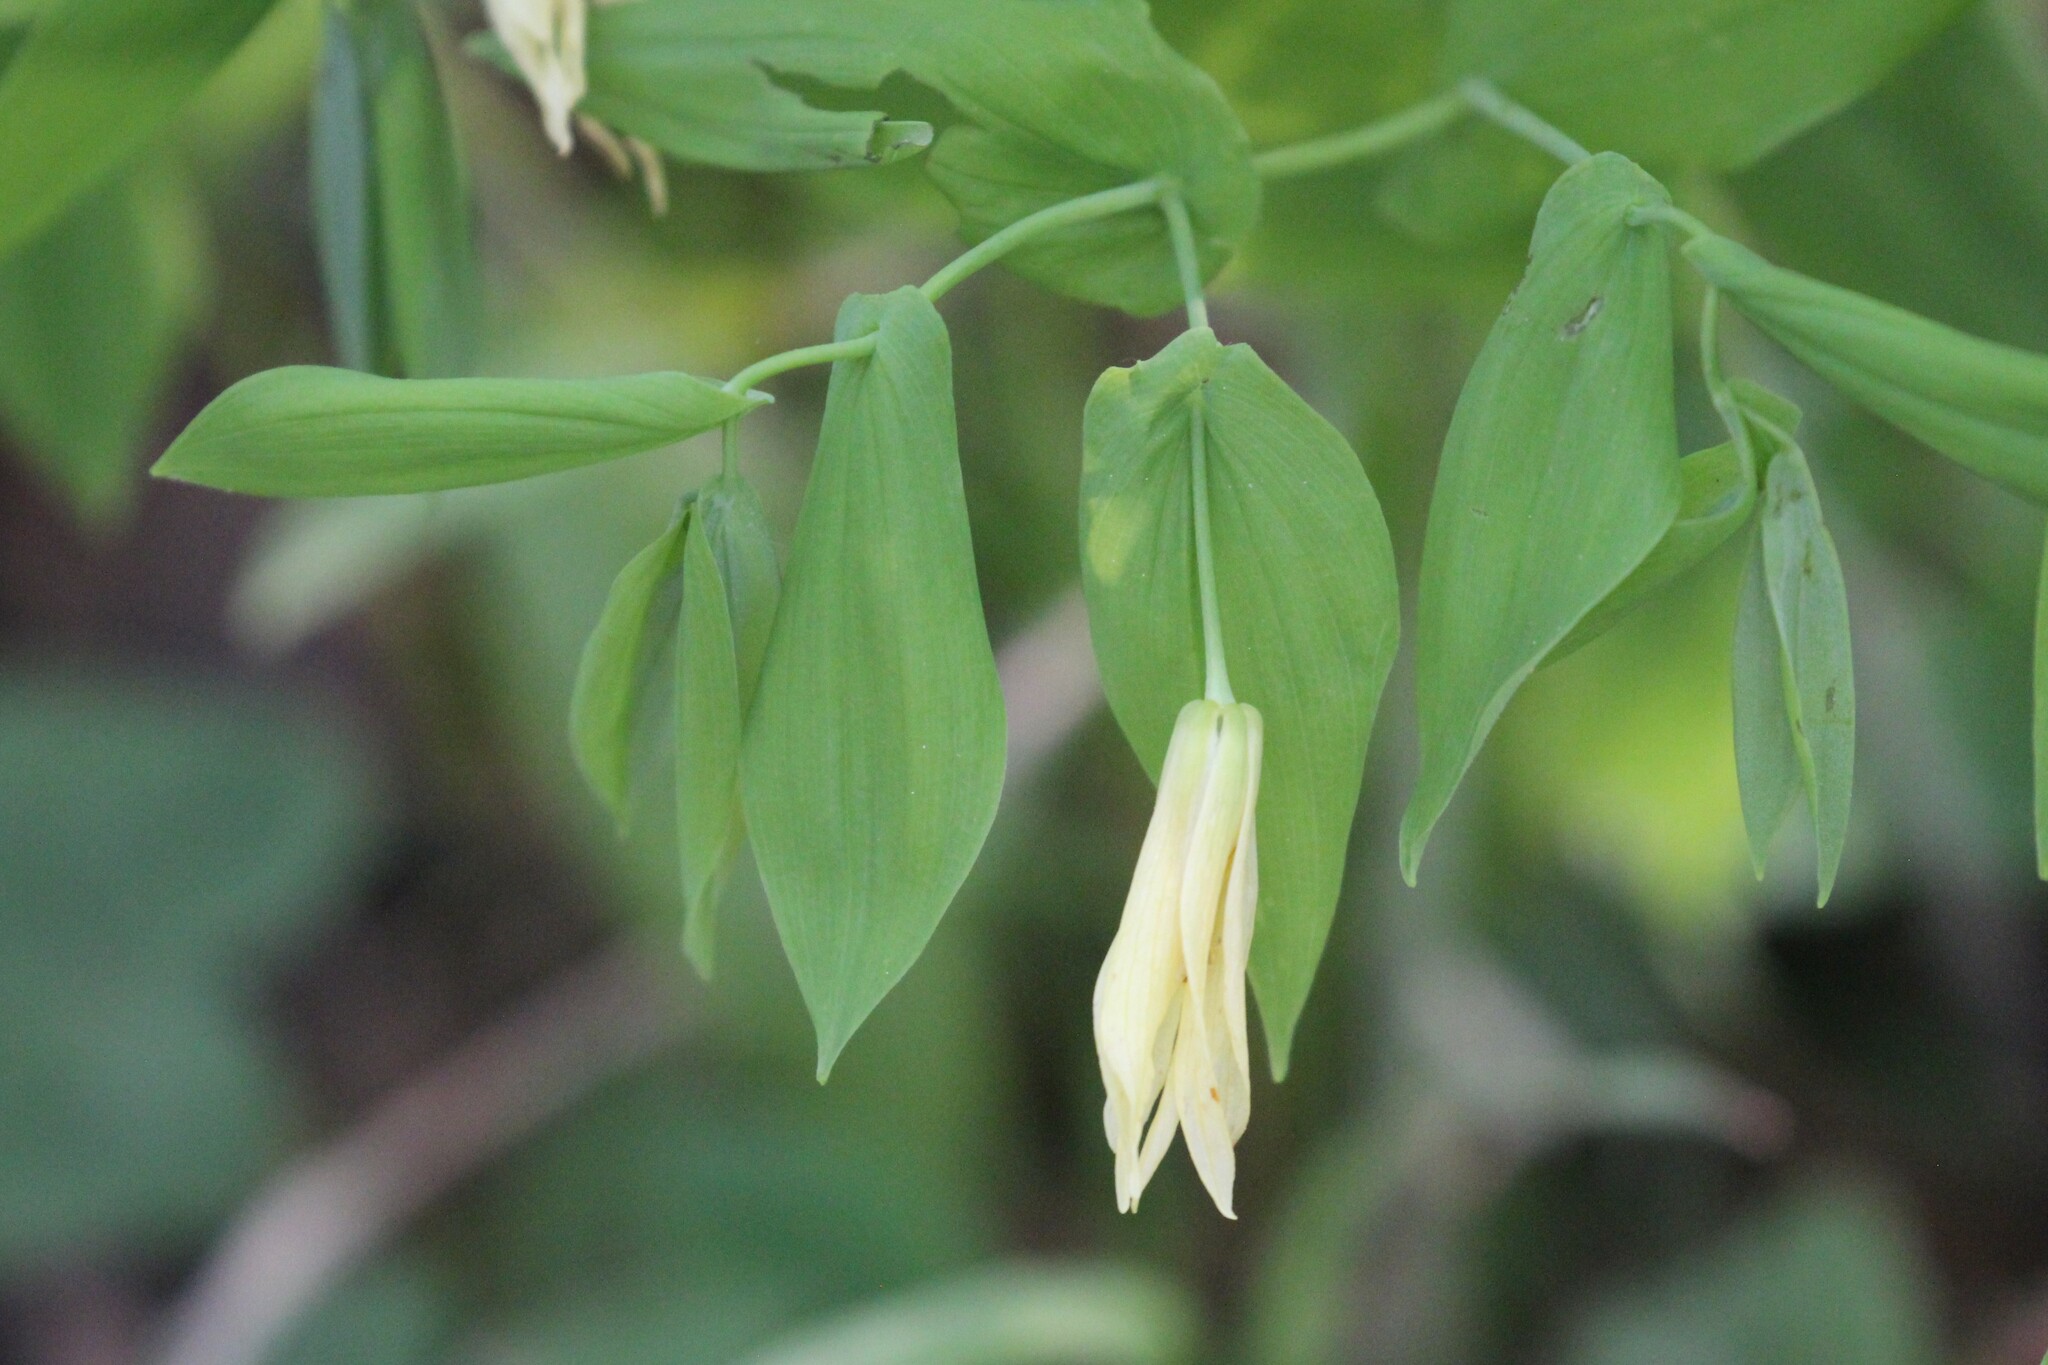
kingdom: Plantae
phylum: Tracheophyta
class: Liliopsida
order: Liliales
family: Colchicaceae
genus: Uvularia
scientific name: Uvularia grandiflora
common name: Bellwort
